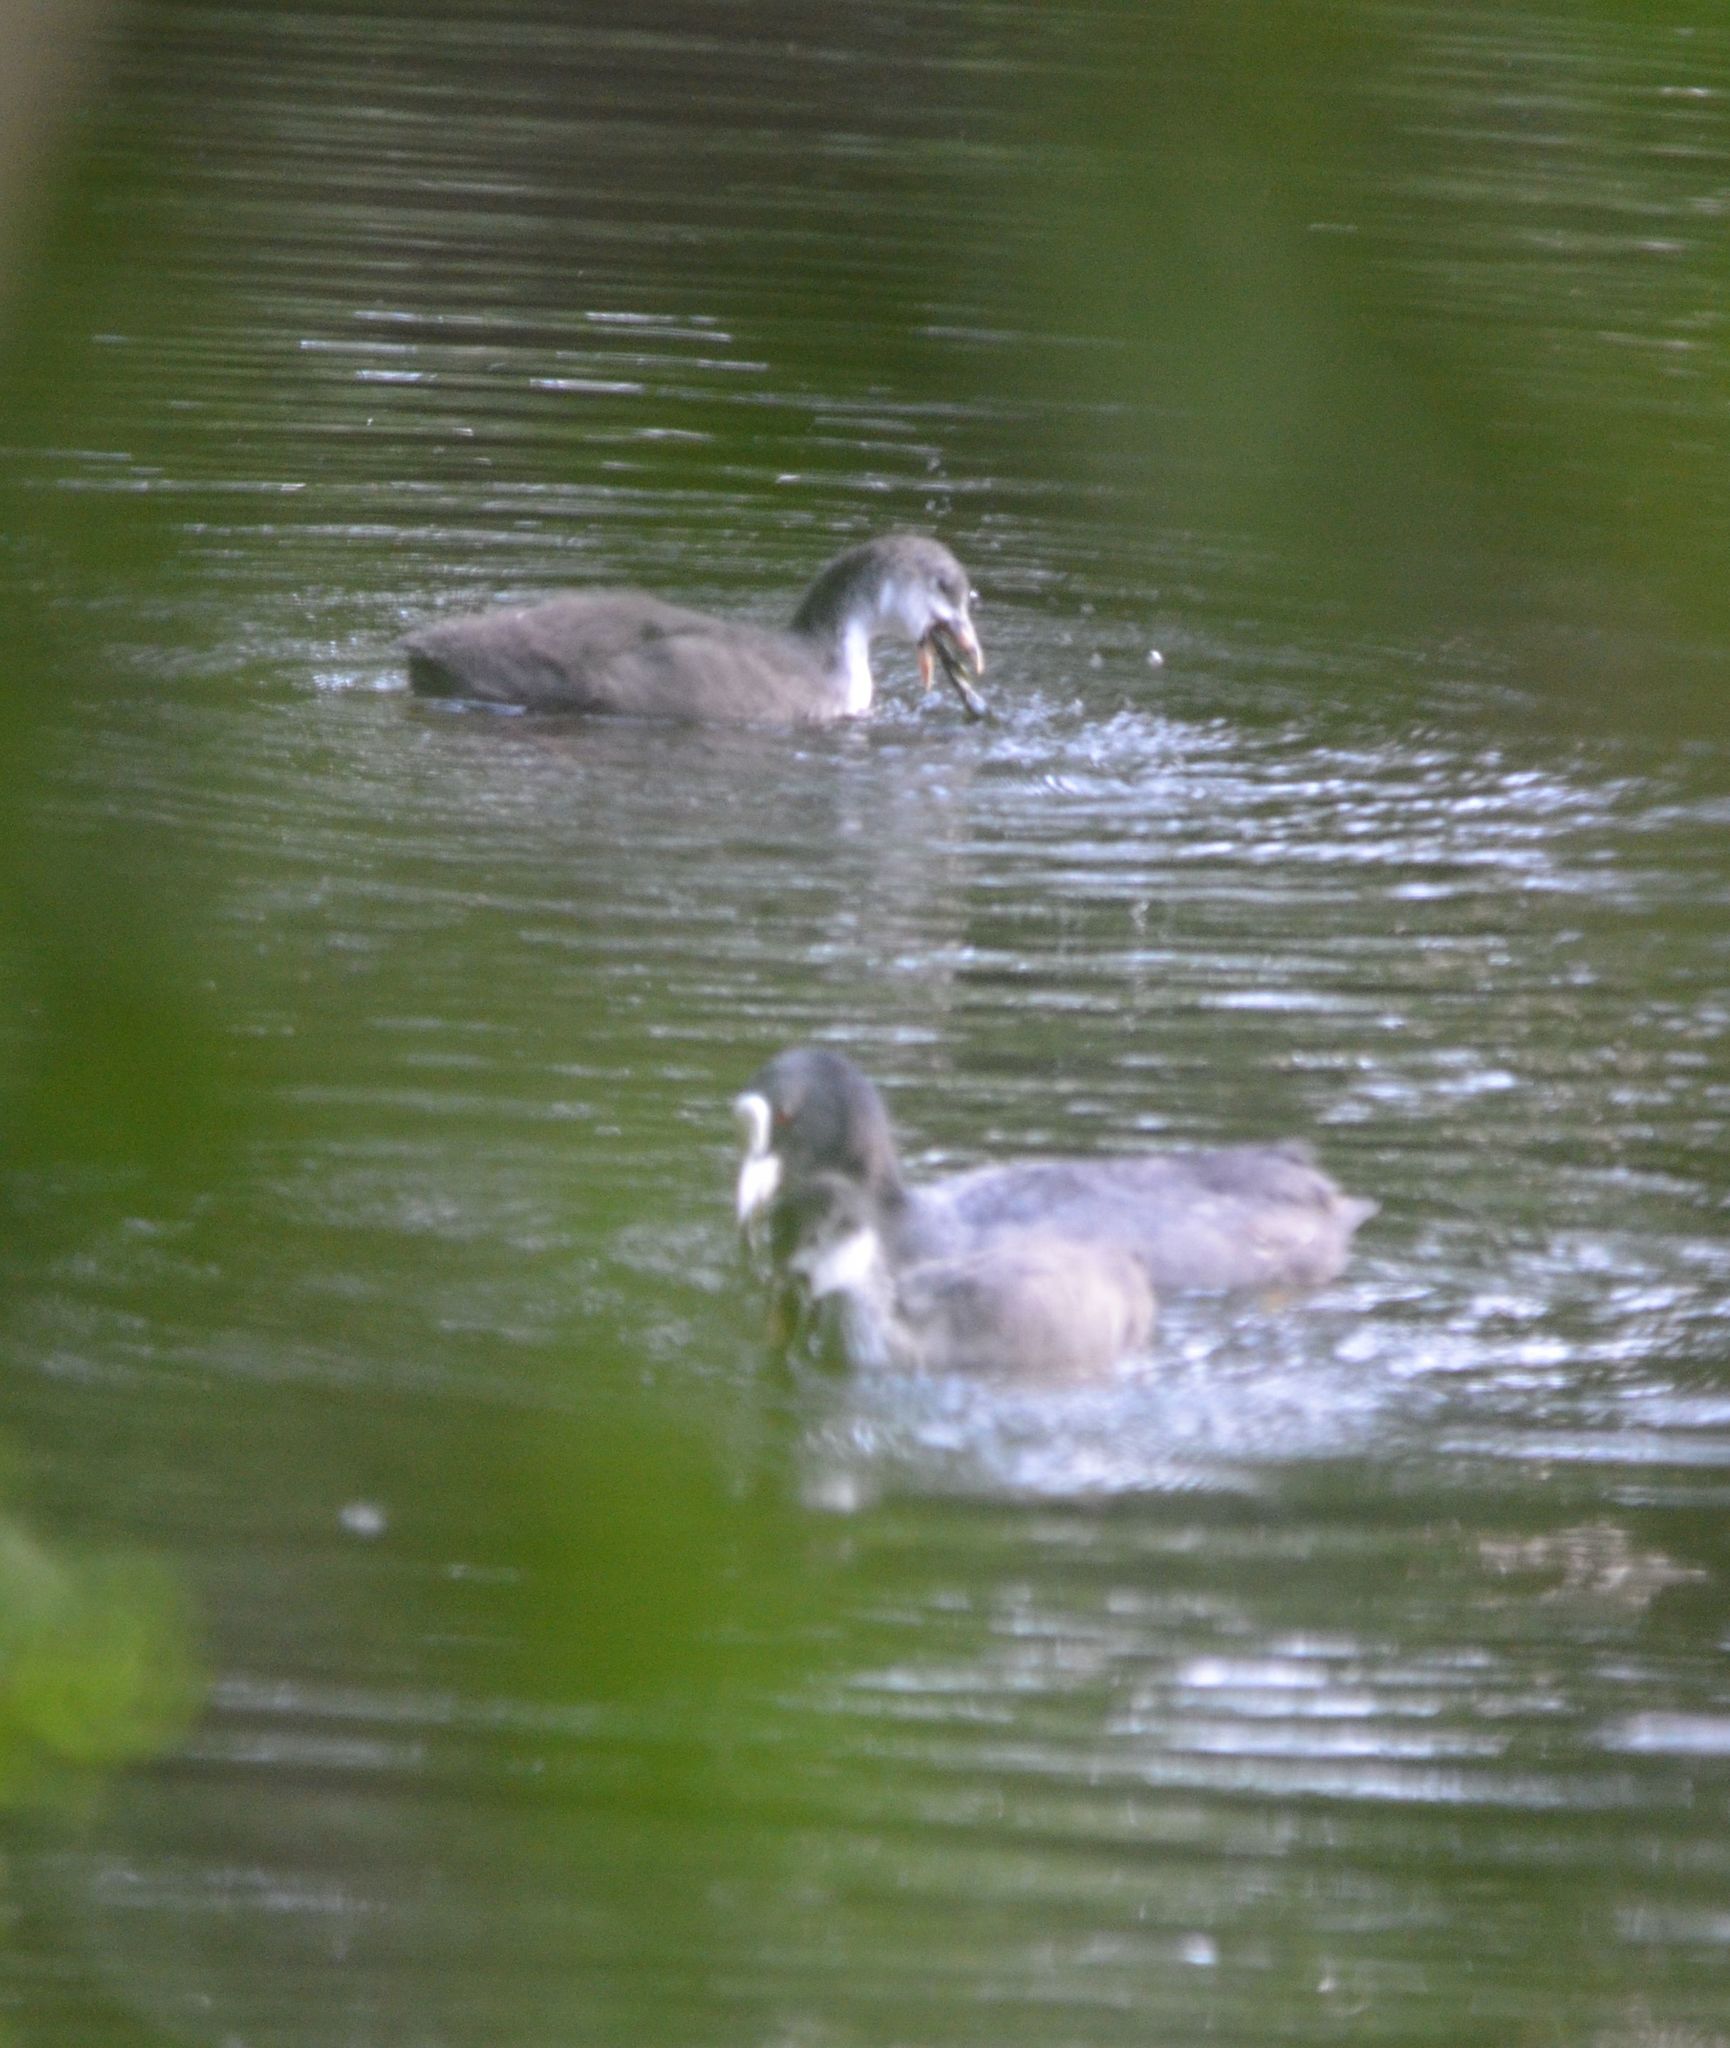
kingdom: Animalia
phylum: Chordata
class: Aves
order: Gruiformes
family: Rallidae
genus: Fulica
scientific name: Fulica atra
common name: Eurasian coot
